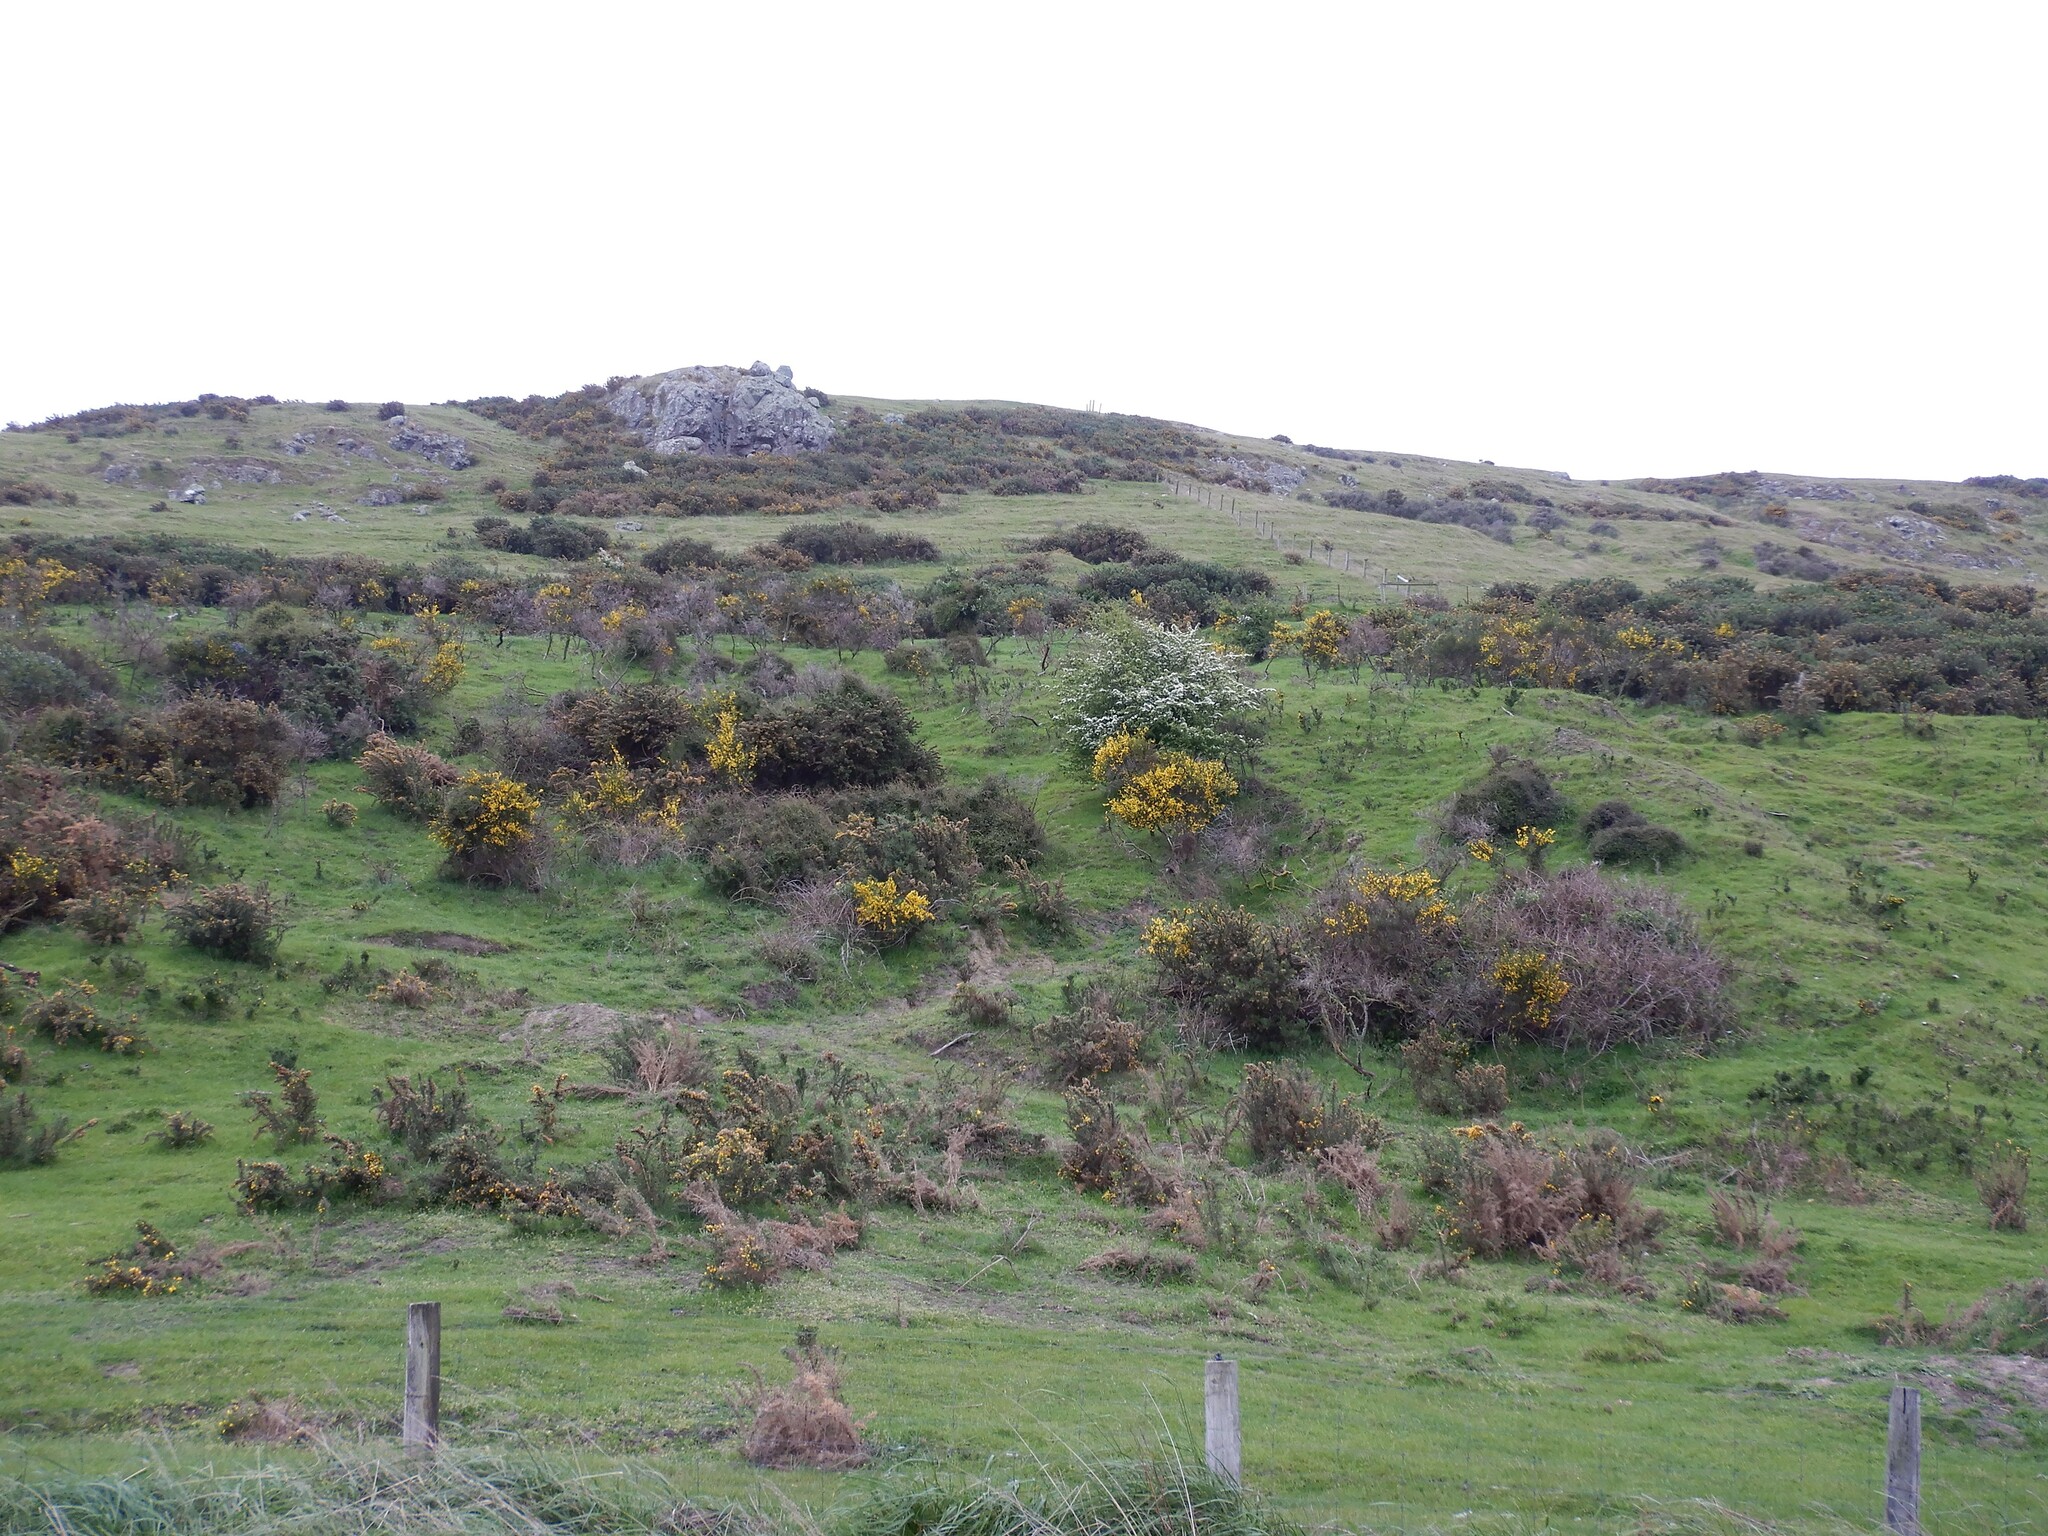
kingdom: Plantae
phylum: Tracheophyta
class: Magnoliopsida
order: Rosales
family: Rosaceae
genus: Crataegus
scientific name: Crataegus monogyna
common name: Hawthorn
